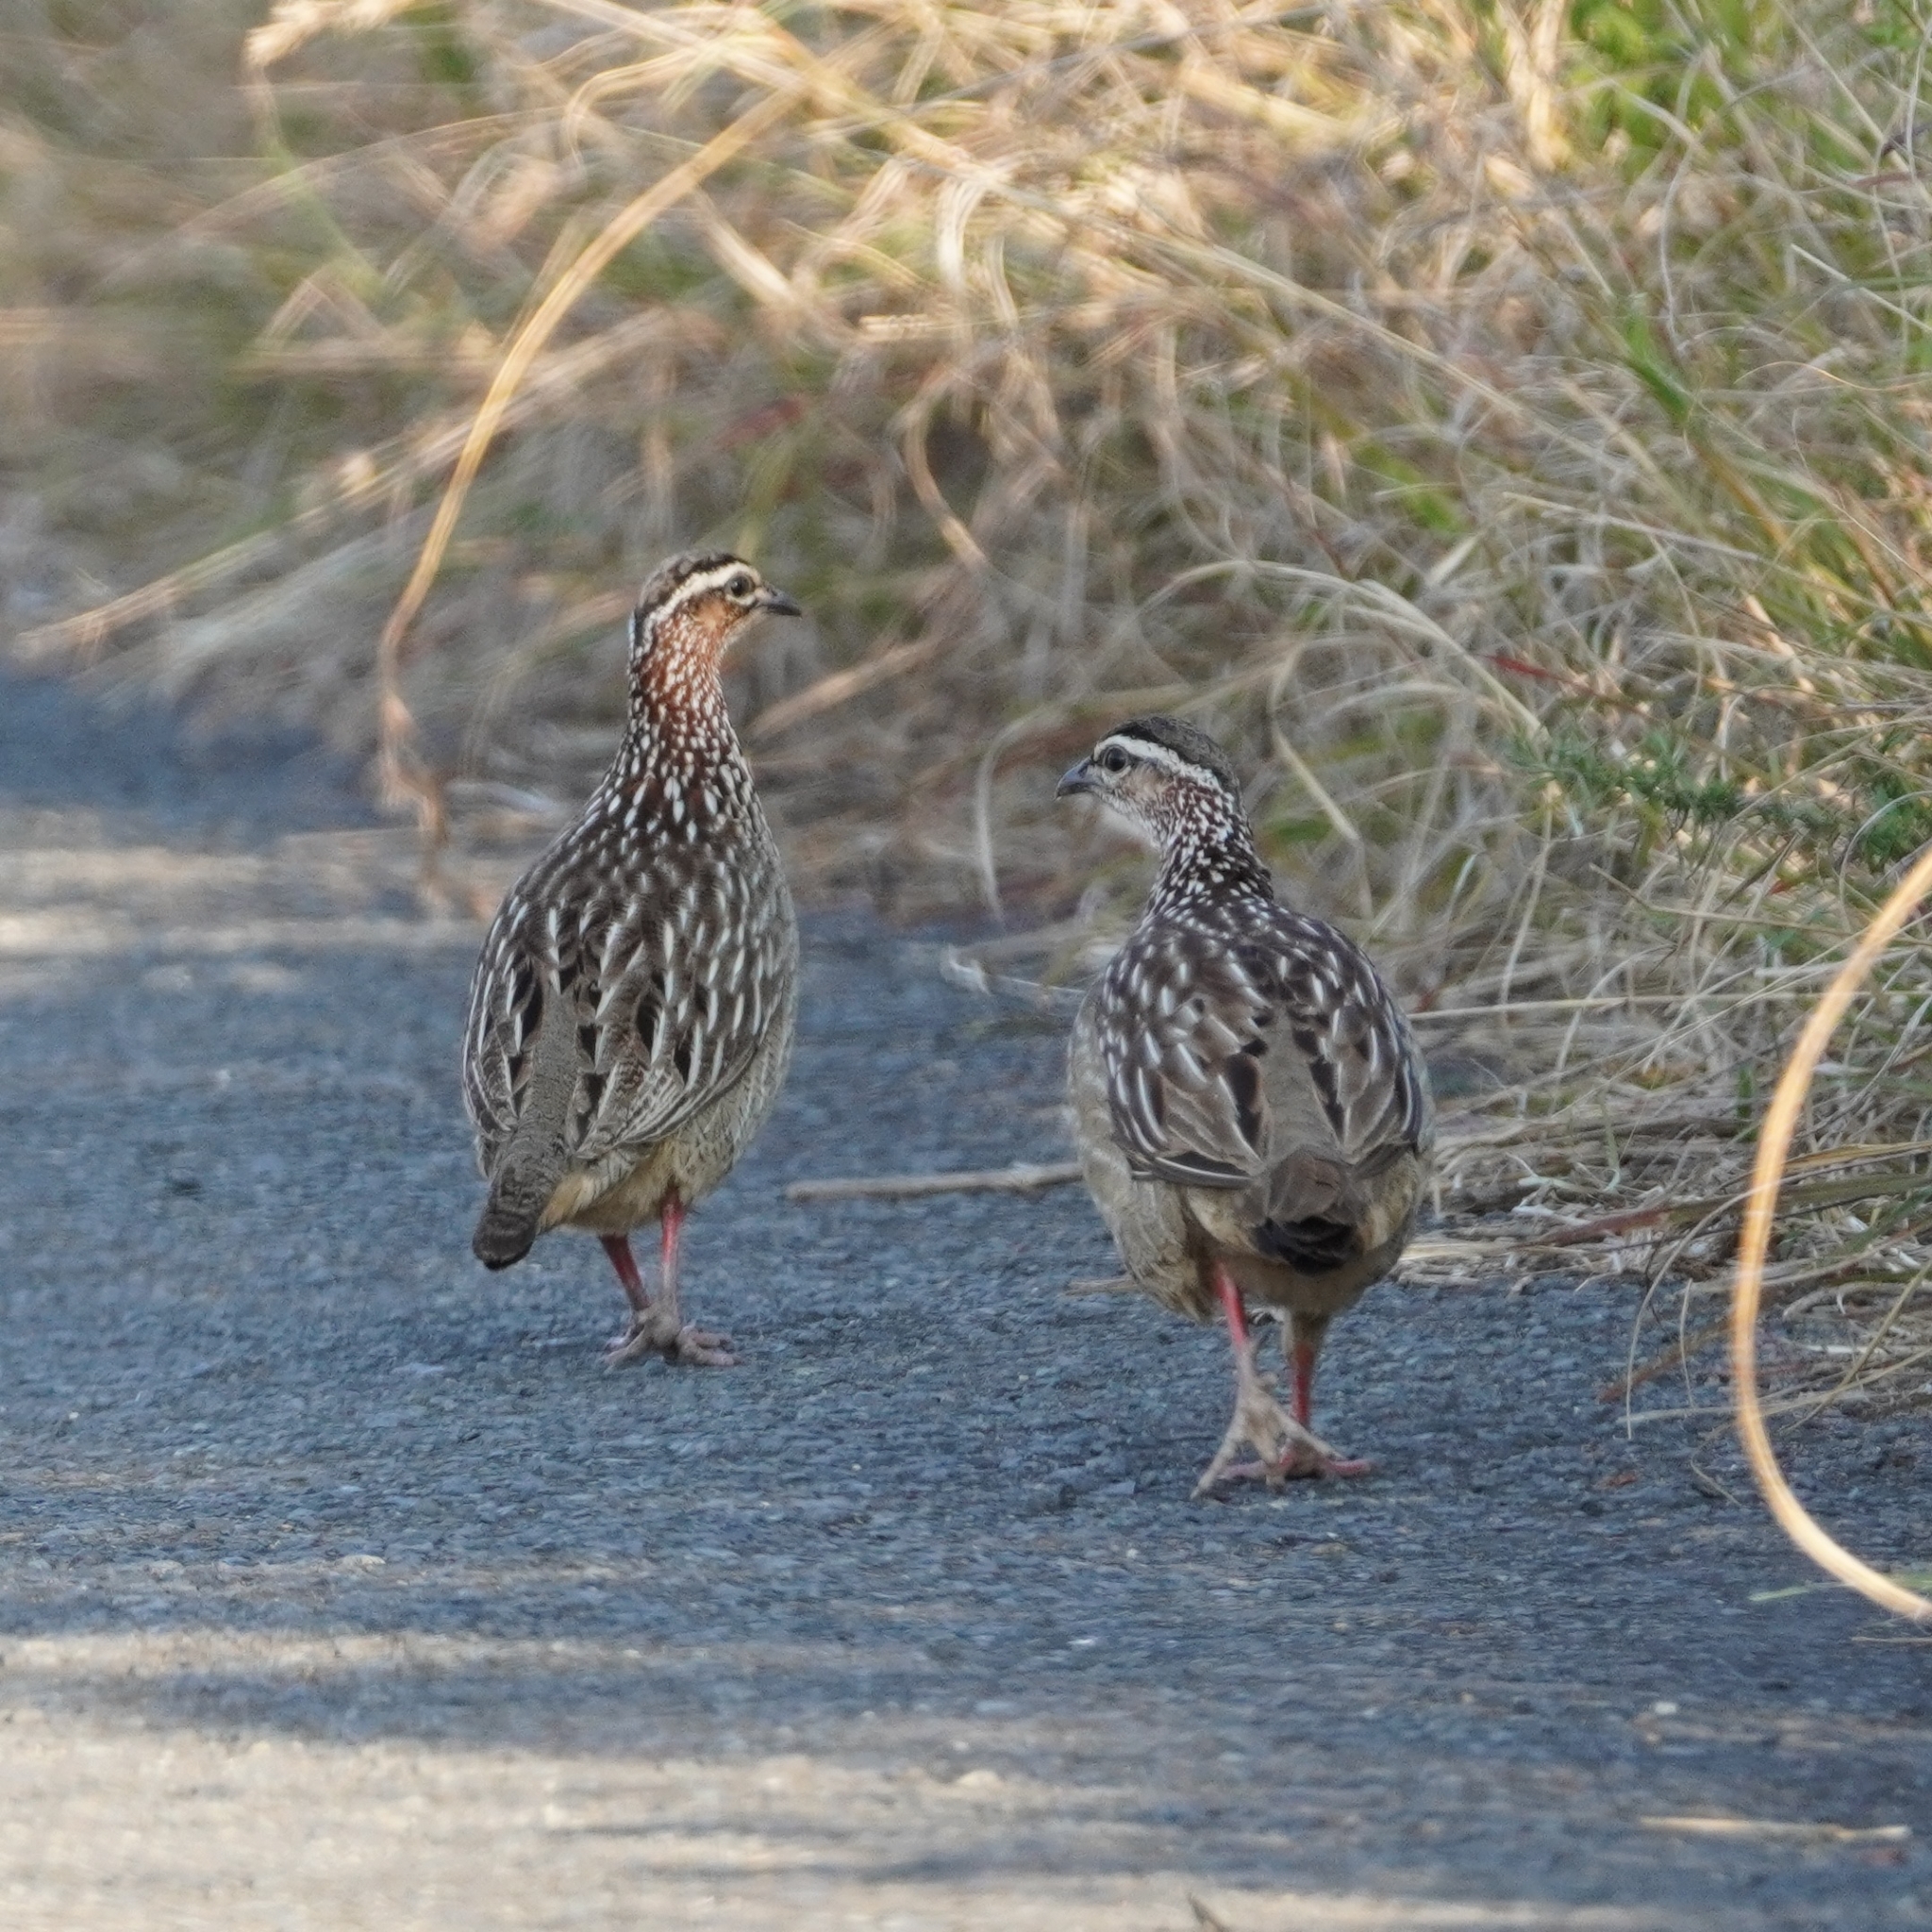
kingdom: Animalia
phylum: Chordata
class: Aves
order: Galliformes
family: Phasianidae
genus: Ortygornis
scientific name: Ortygornis sephaena
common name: Crested francolin
